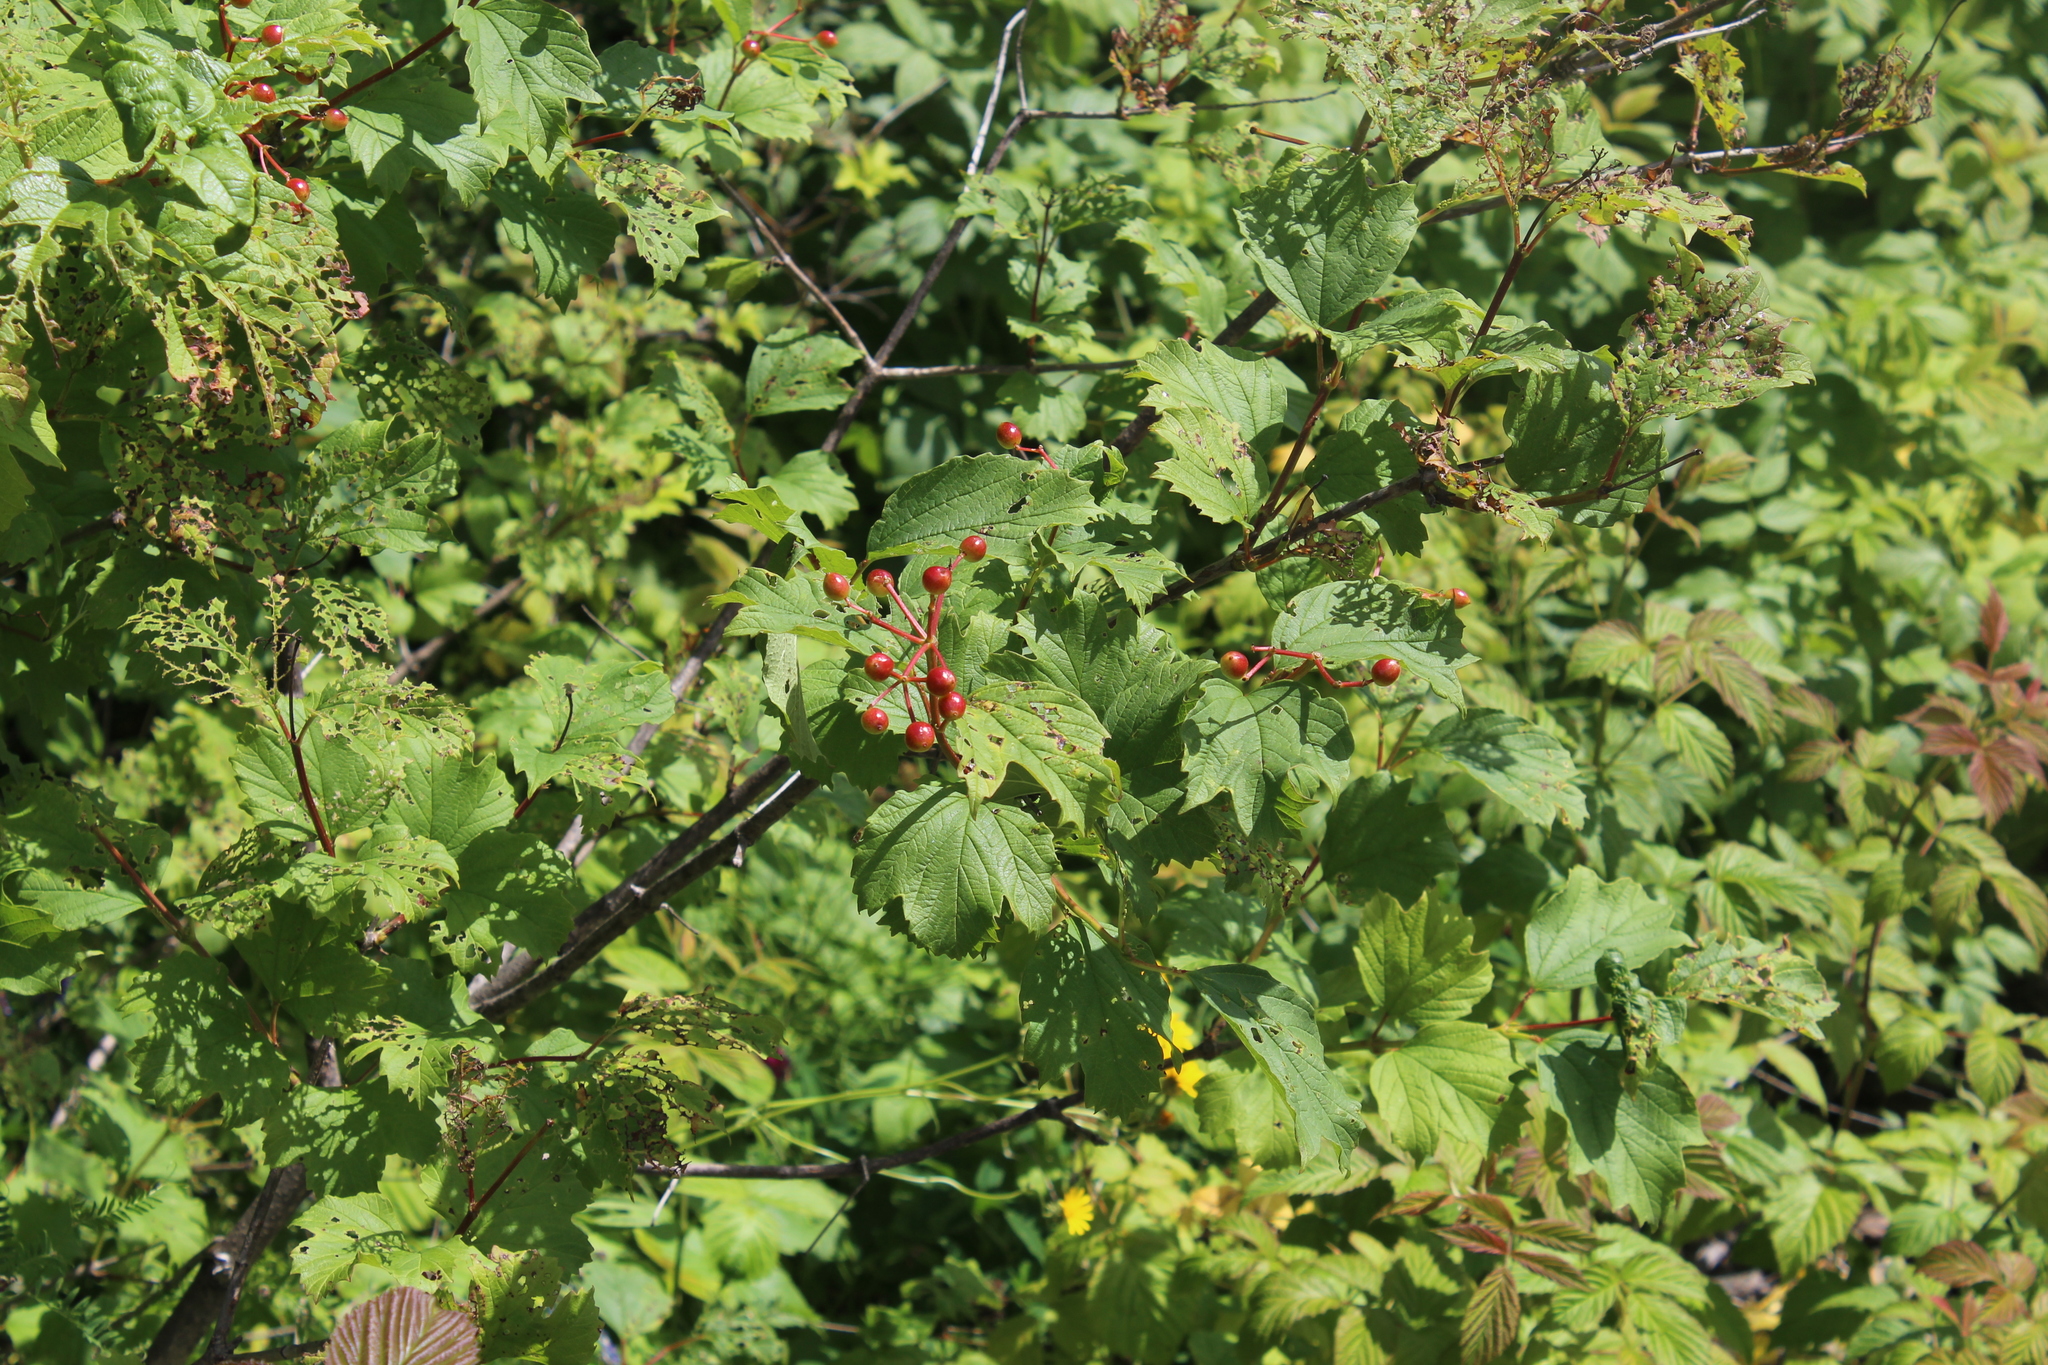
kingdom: Plantae
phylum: Tracheophyta
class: Magnoliopsida
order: Dipsacales
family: Viburnaceae
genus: Viburnum
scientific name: Viburnum opulus
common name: Guelder-rose
